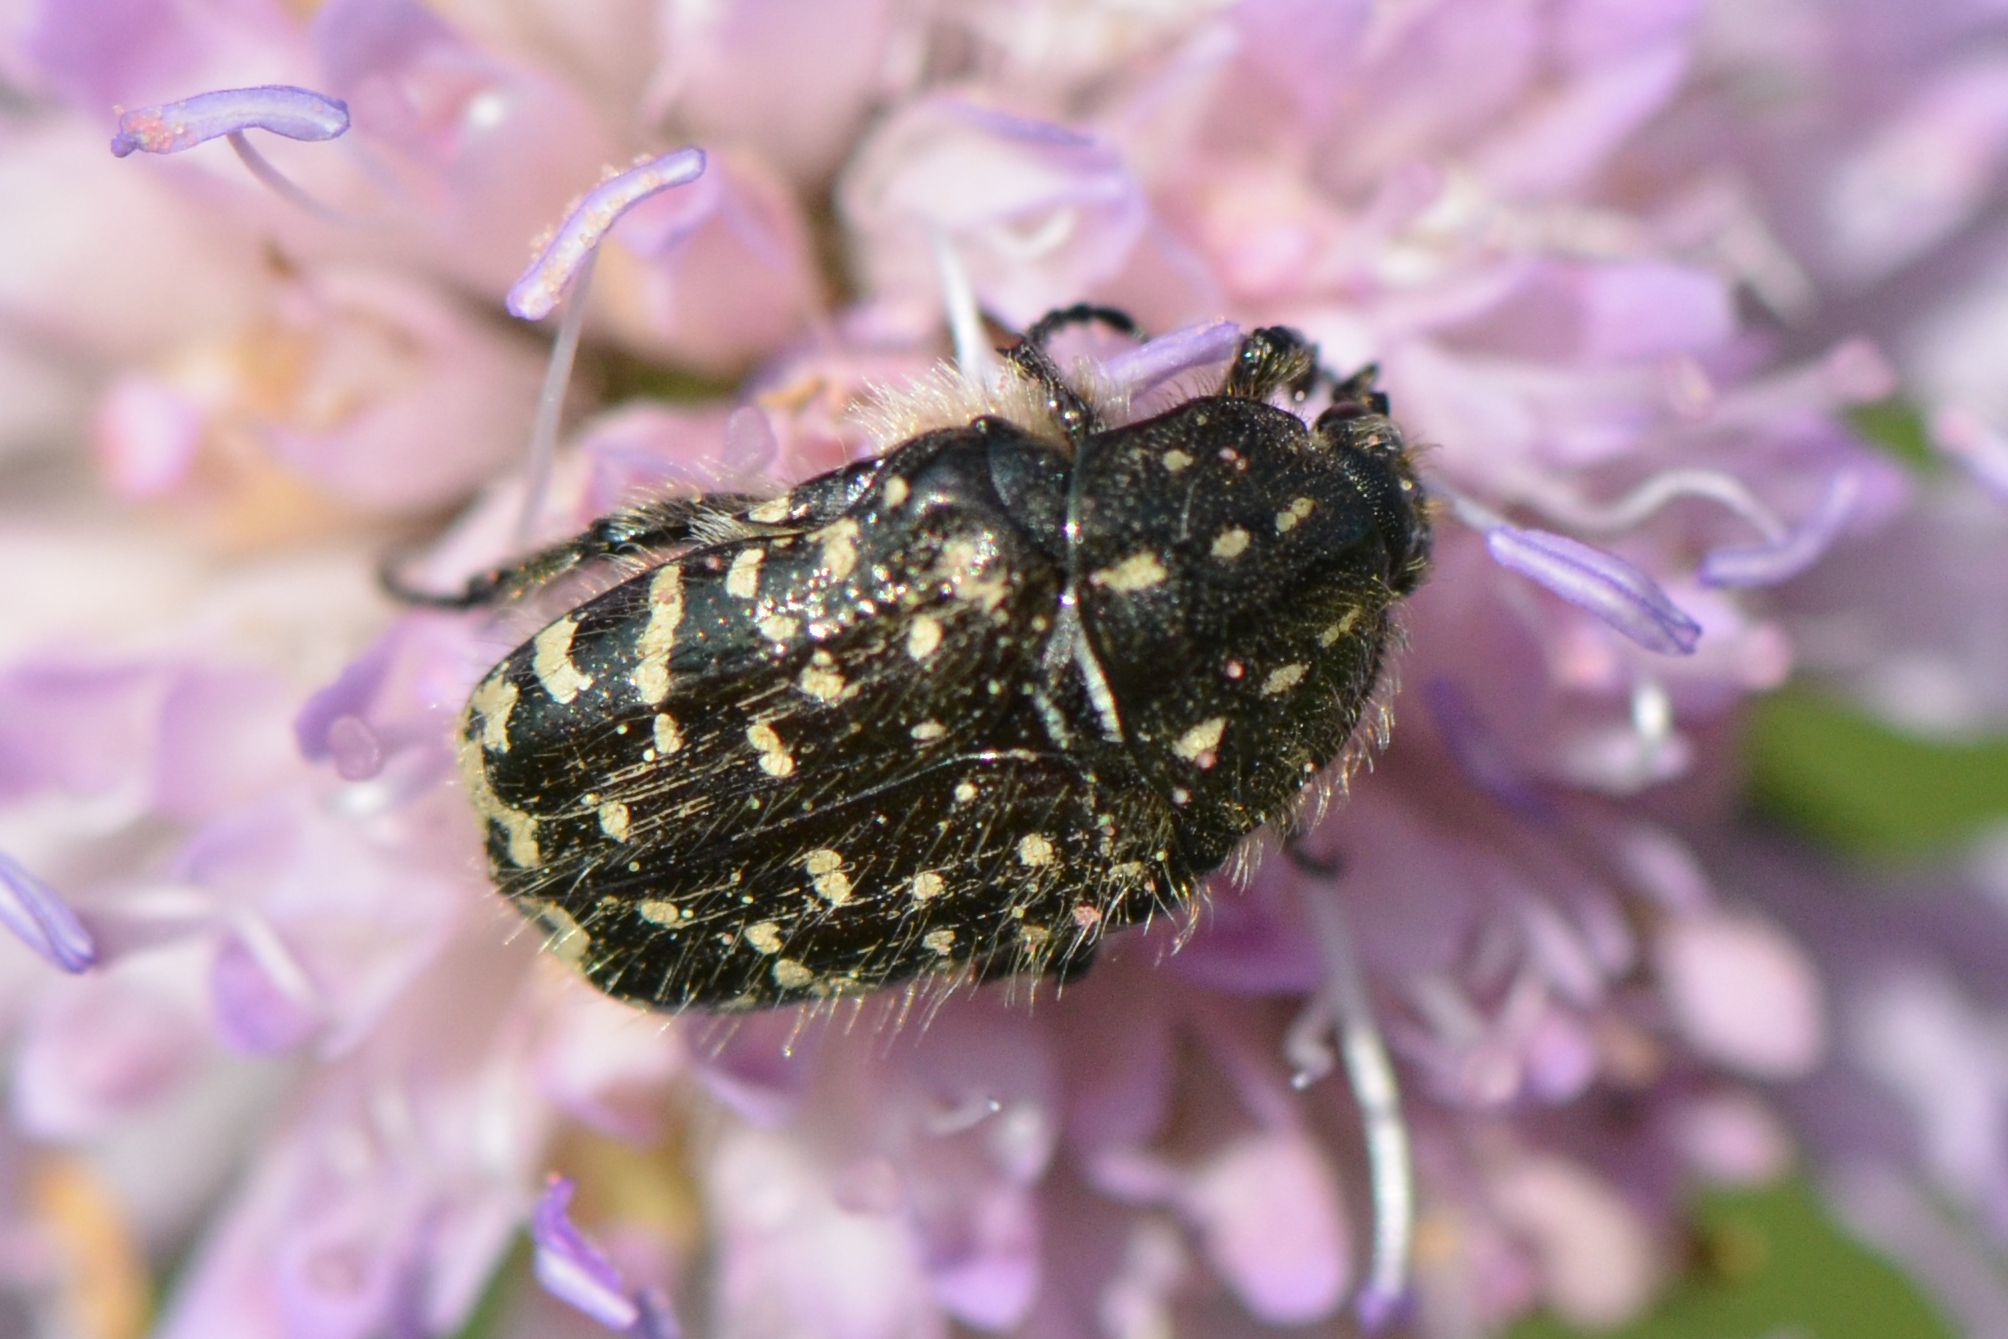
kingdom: Animalia
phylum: Arthropoda
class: Insecta
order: Coleoptera
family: Scarabaeidae
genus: Oxythyrea
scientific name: Oxythyrea funesta
